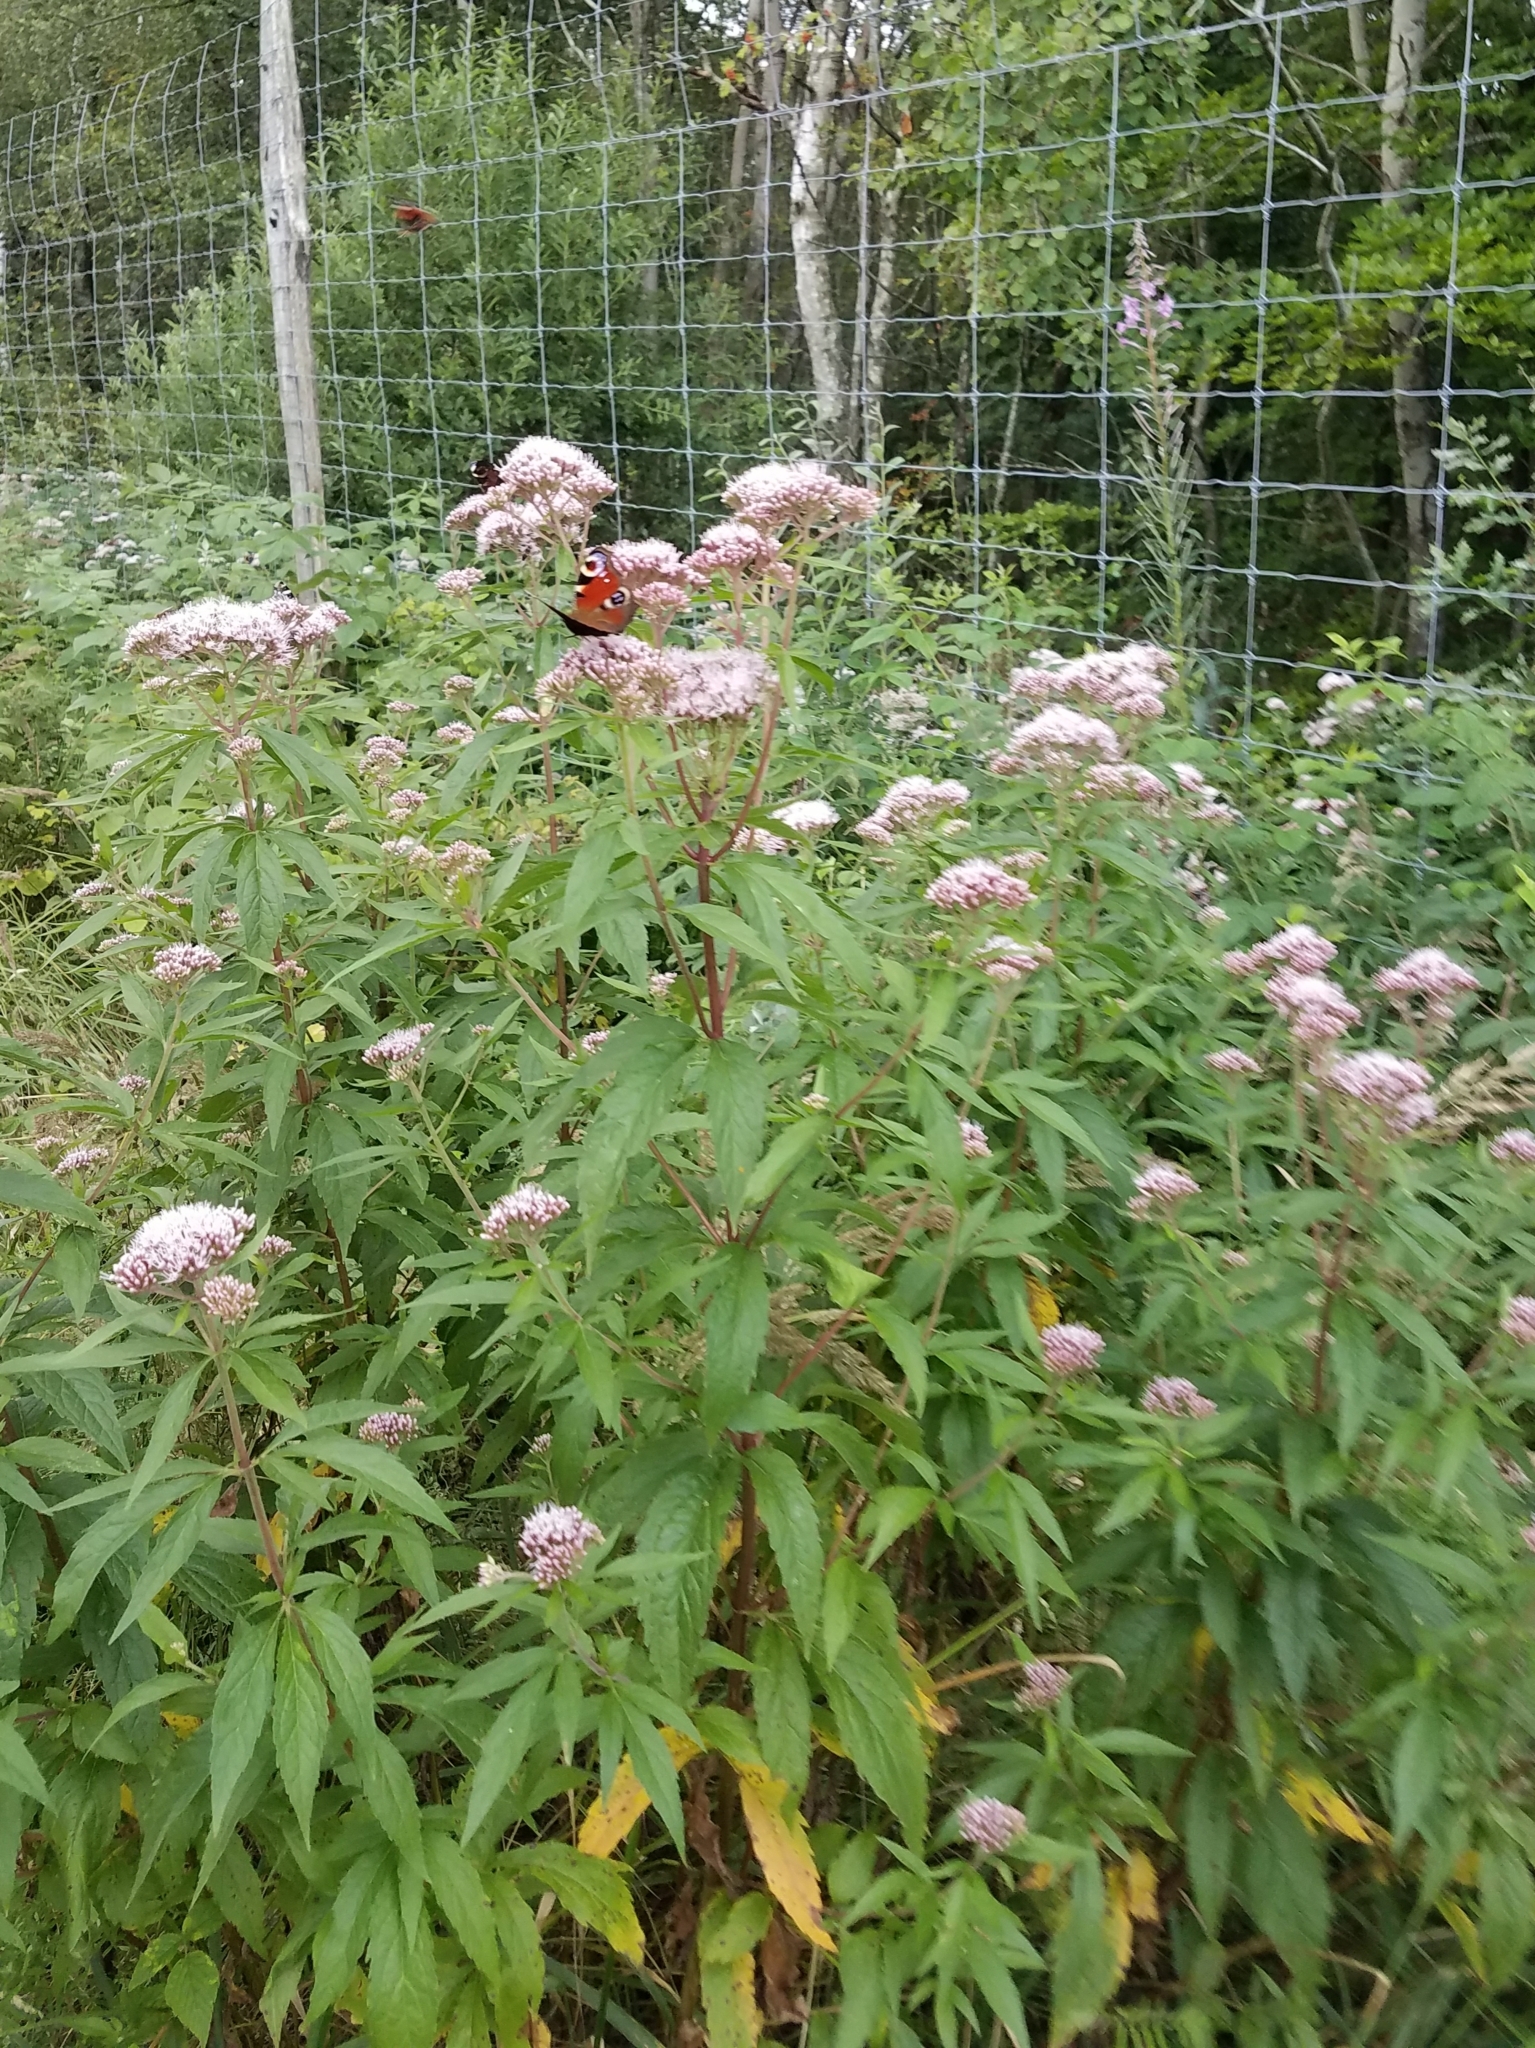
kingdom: Plantae
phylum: Tracheophyta
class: Magnoliopsida
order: Asterales
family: Asteraceae
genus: Eupatorium
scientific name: Eupatorium cannabinum
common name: Hemp-agrimony
